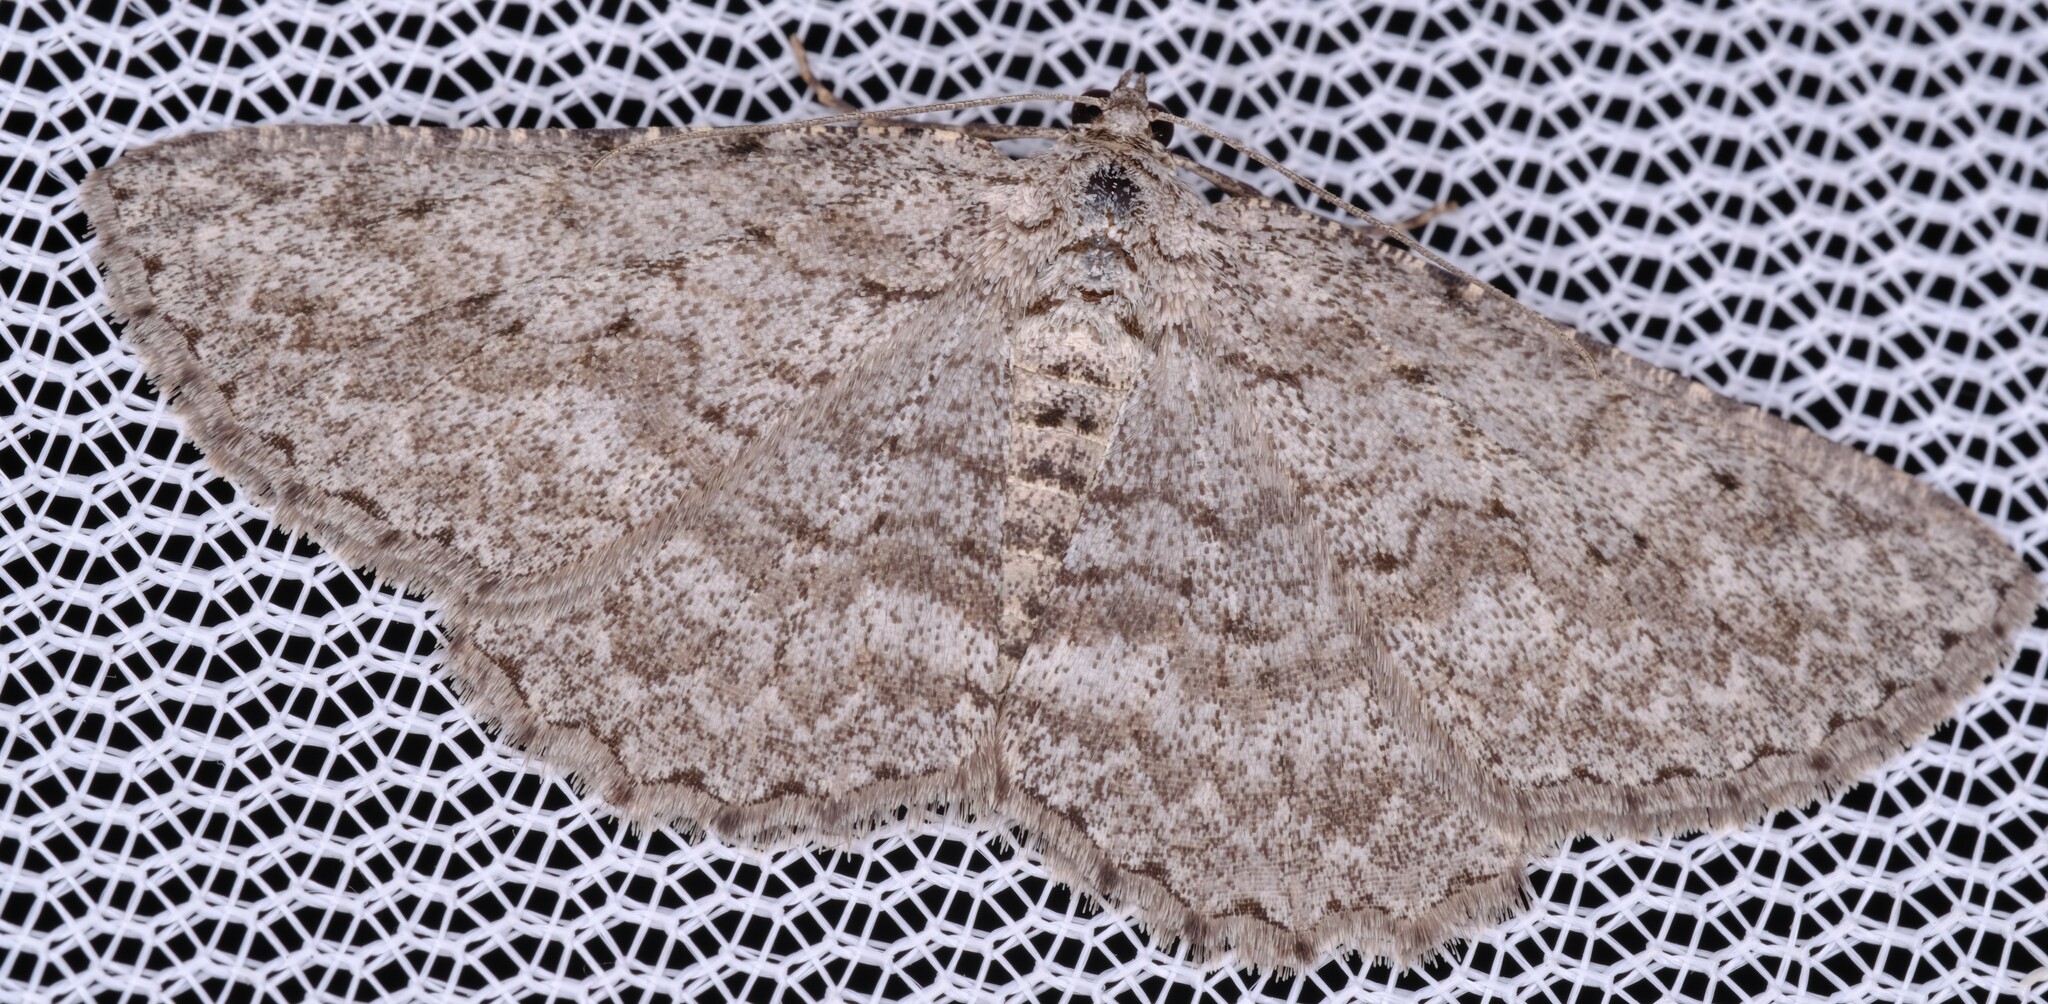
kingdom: Animalia
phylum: Arthropoda
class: Insecta
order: Lepidoptera
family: Geometridae
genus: Psilosticha
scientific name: Psilosticha absorpta
